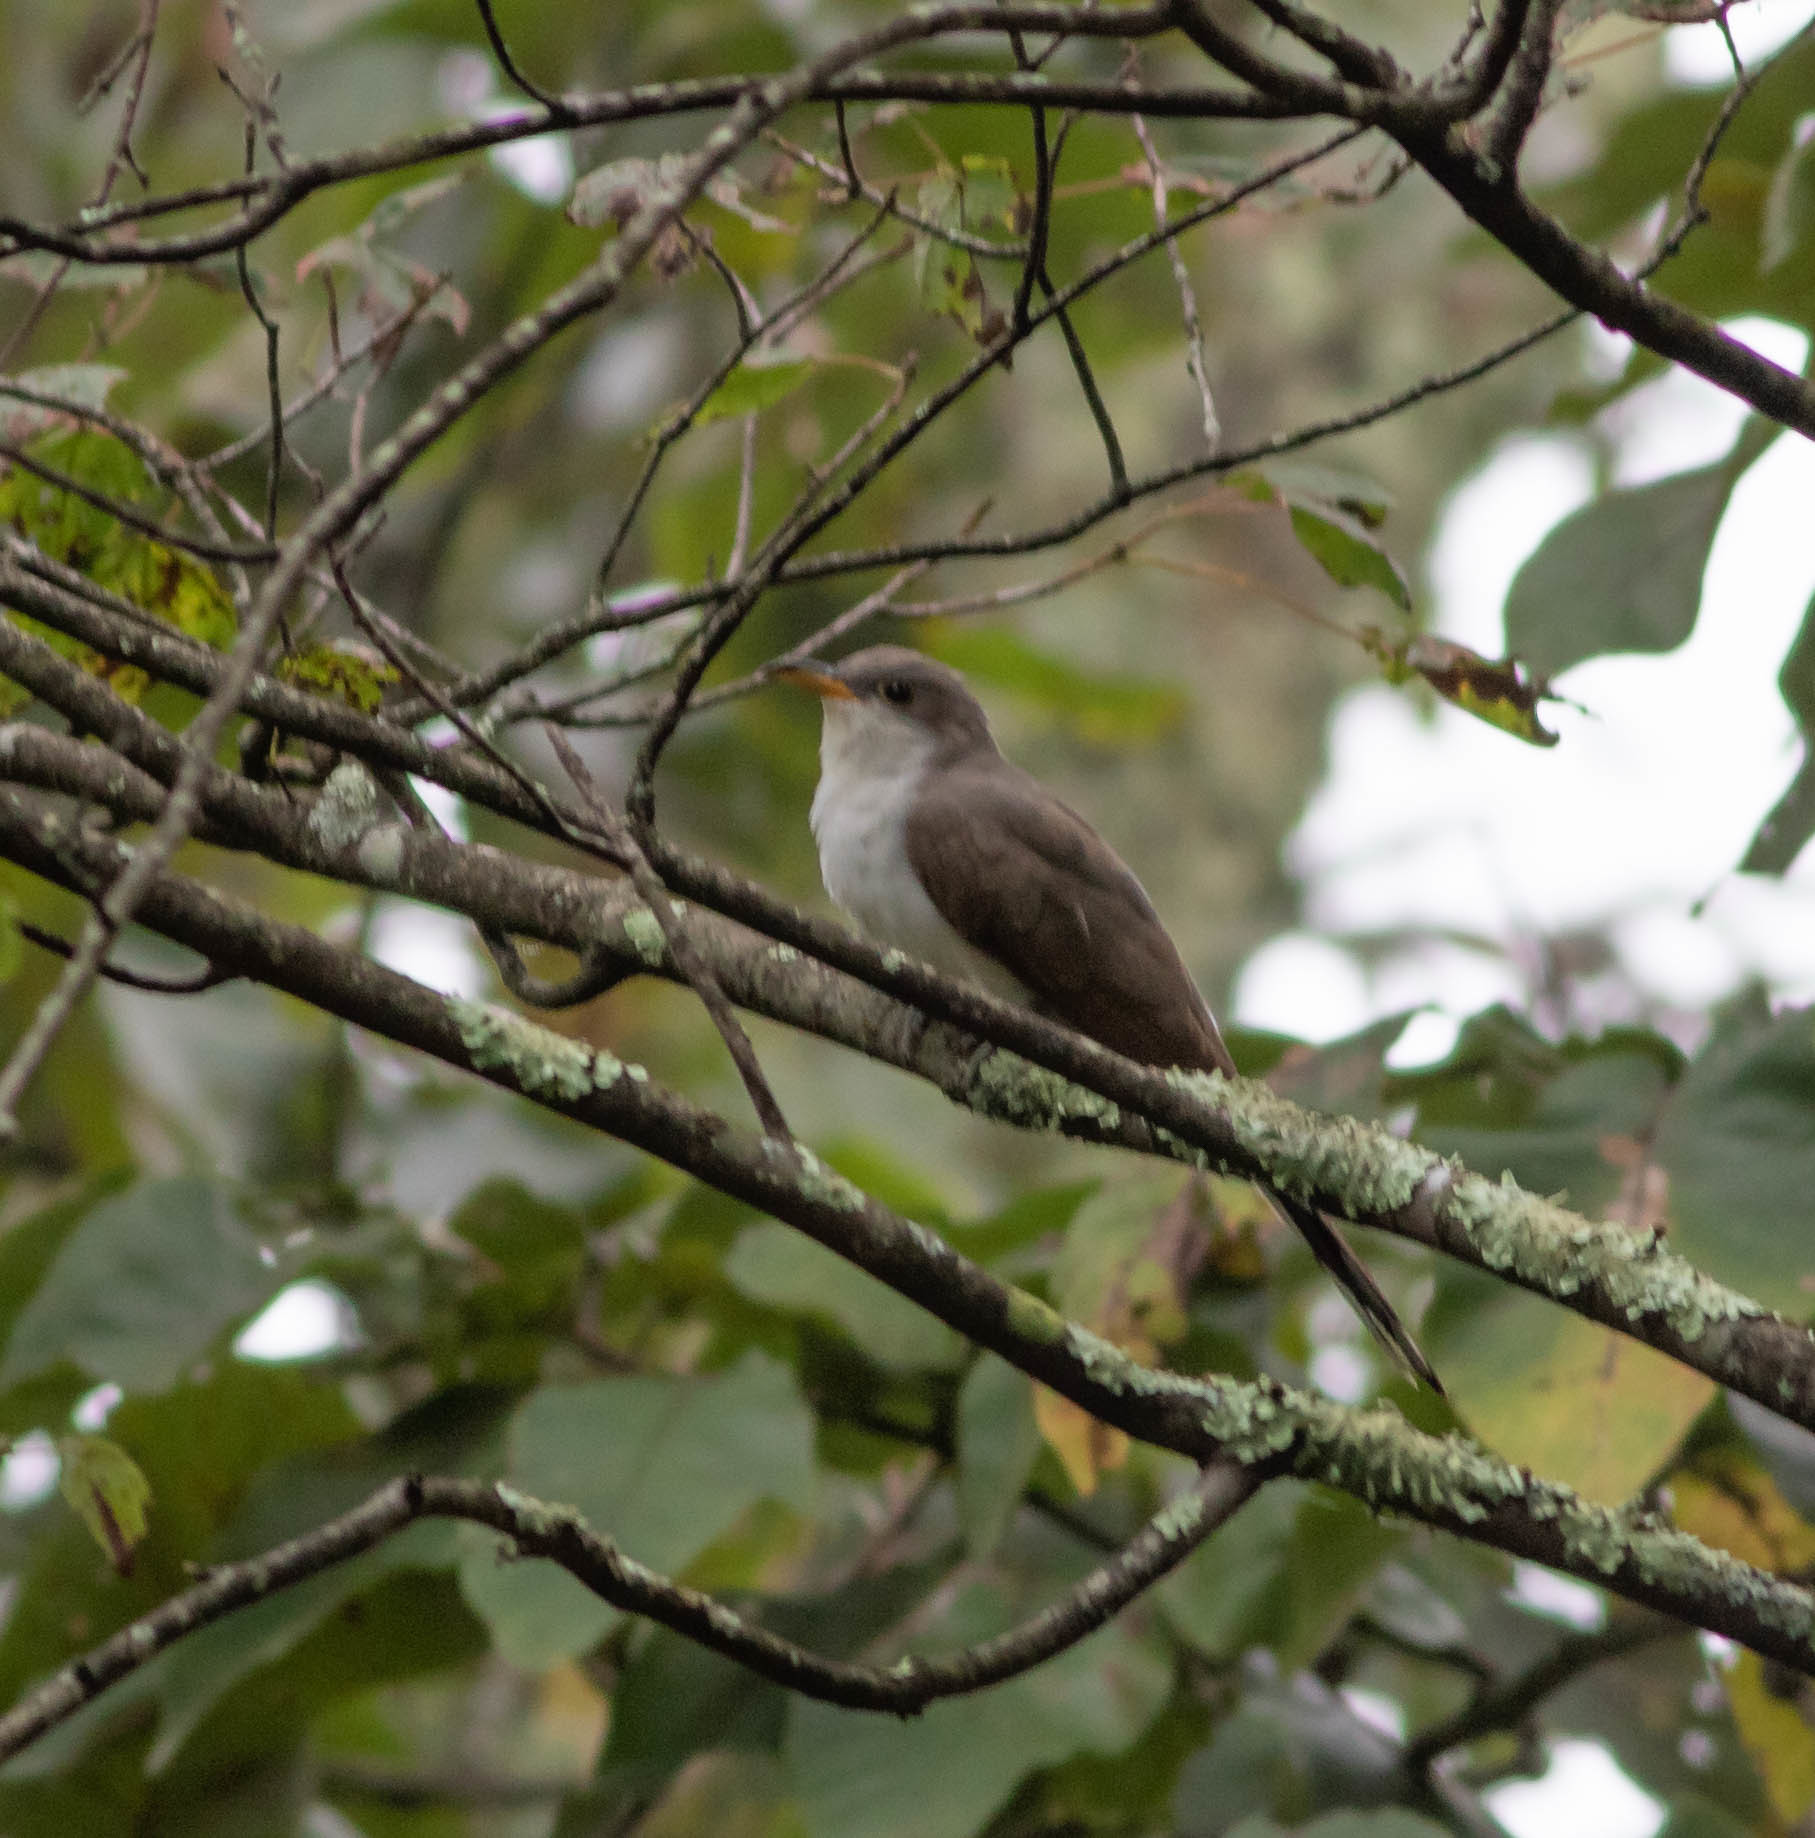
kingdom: Animalia
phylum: Chordata
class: Aves
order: Cuculiformes
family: Cuculidae
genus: Coccyzus
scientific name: Coccyzus americanus
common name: Yellow-billed cuckoo
